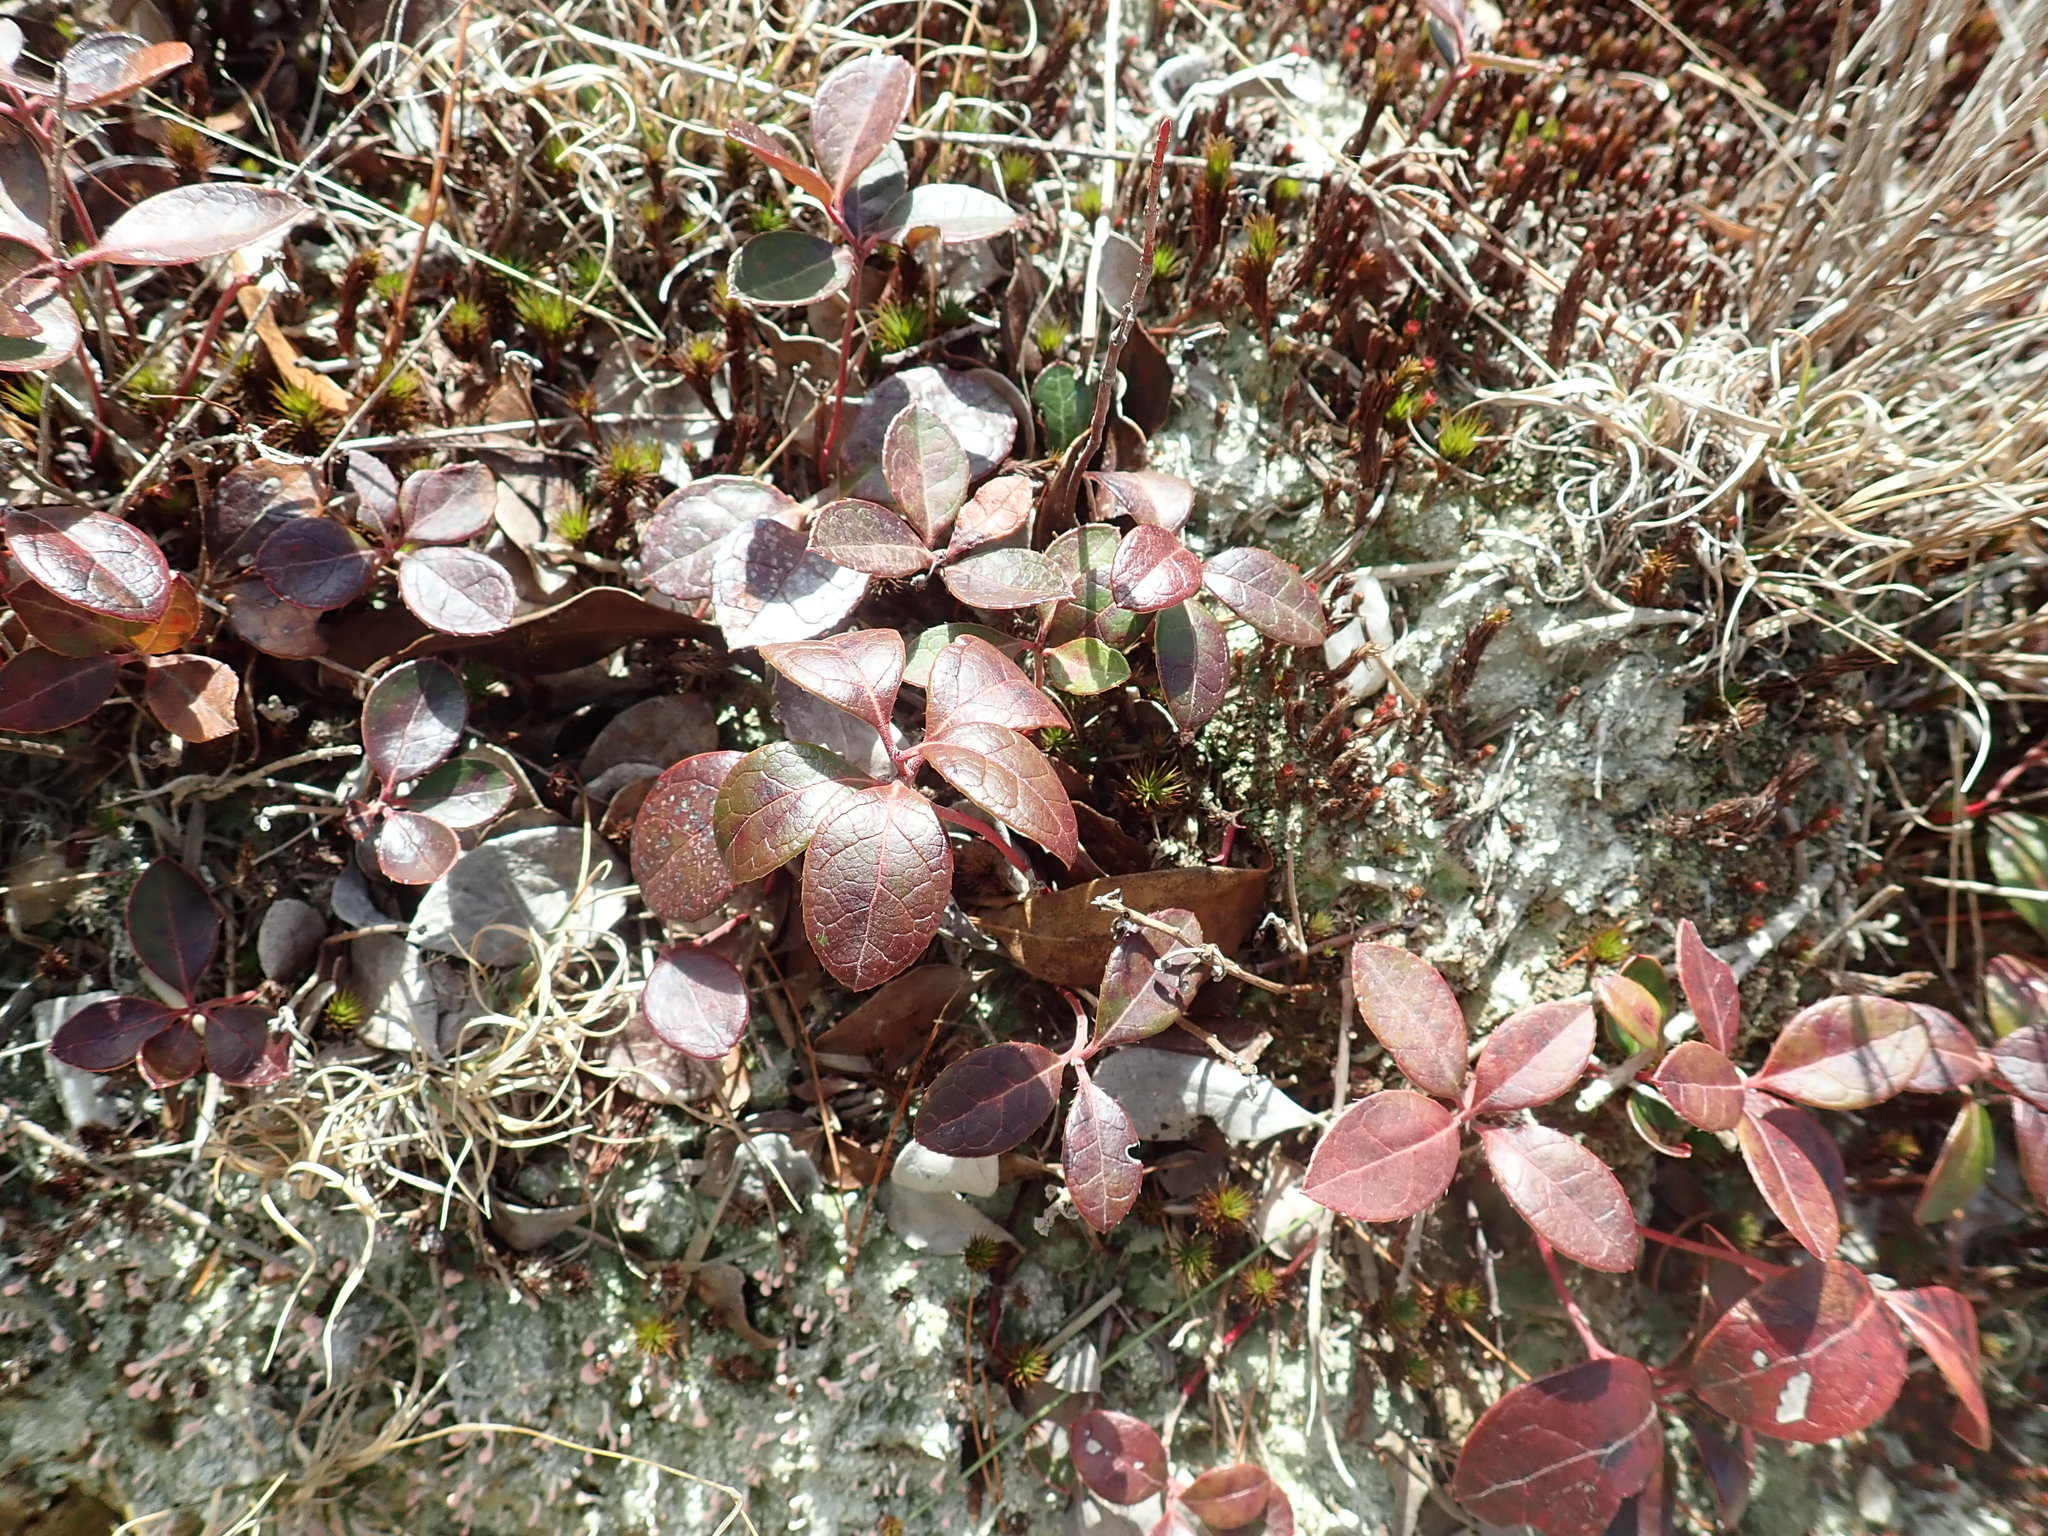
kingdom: Plantae
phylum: Tracheophyta
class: Magnoliopsida
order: Ericales
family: Ericaceae
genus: Gaultheria
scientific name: Gaultheria procumbens
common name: Checkerberry
